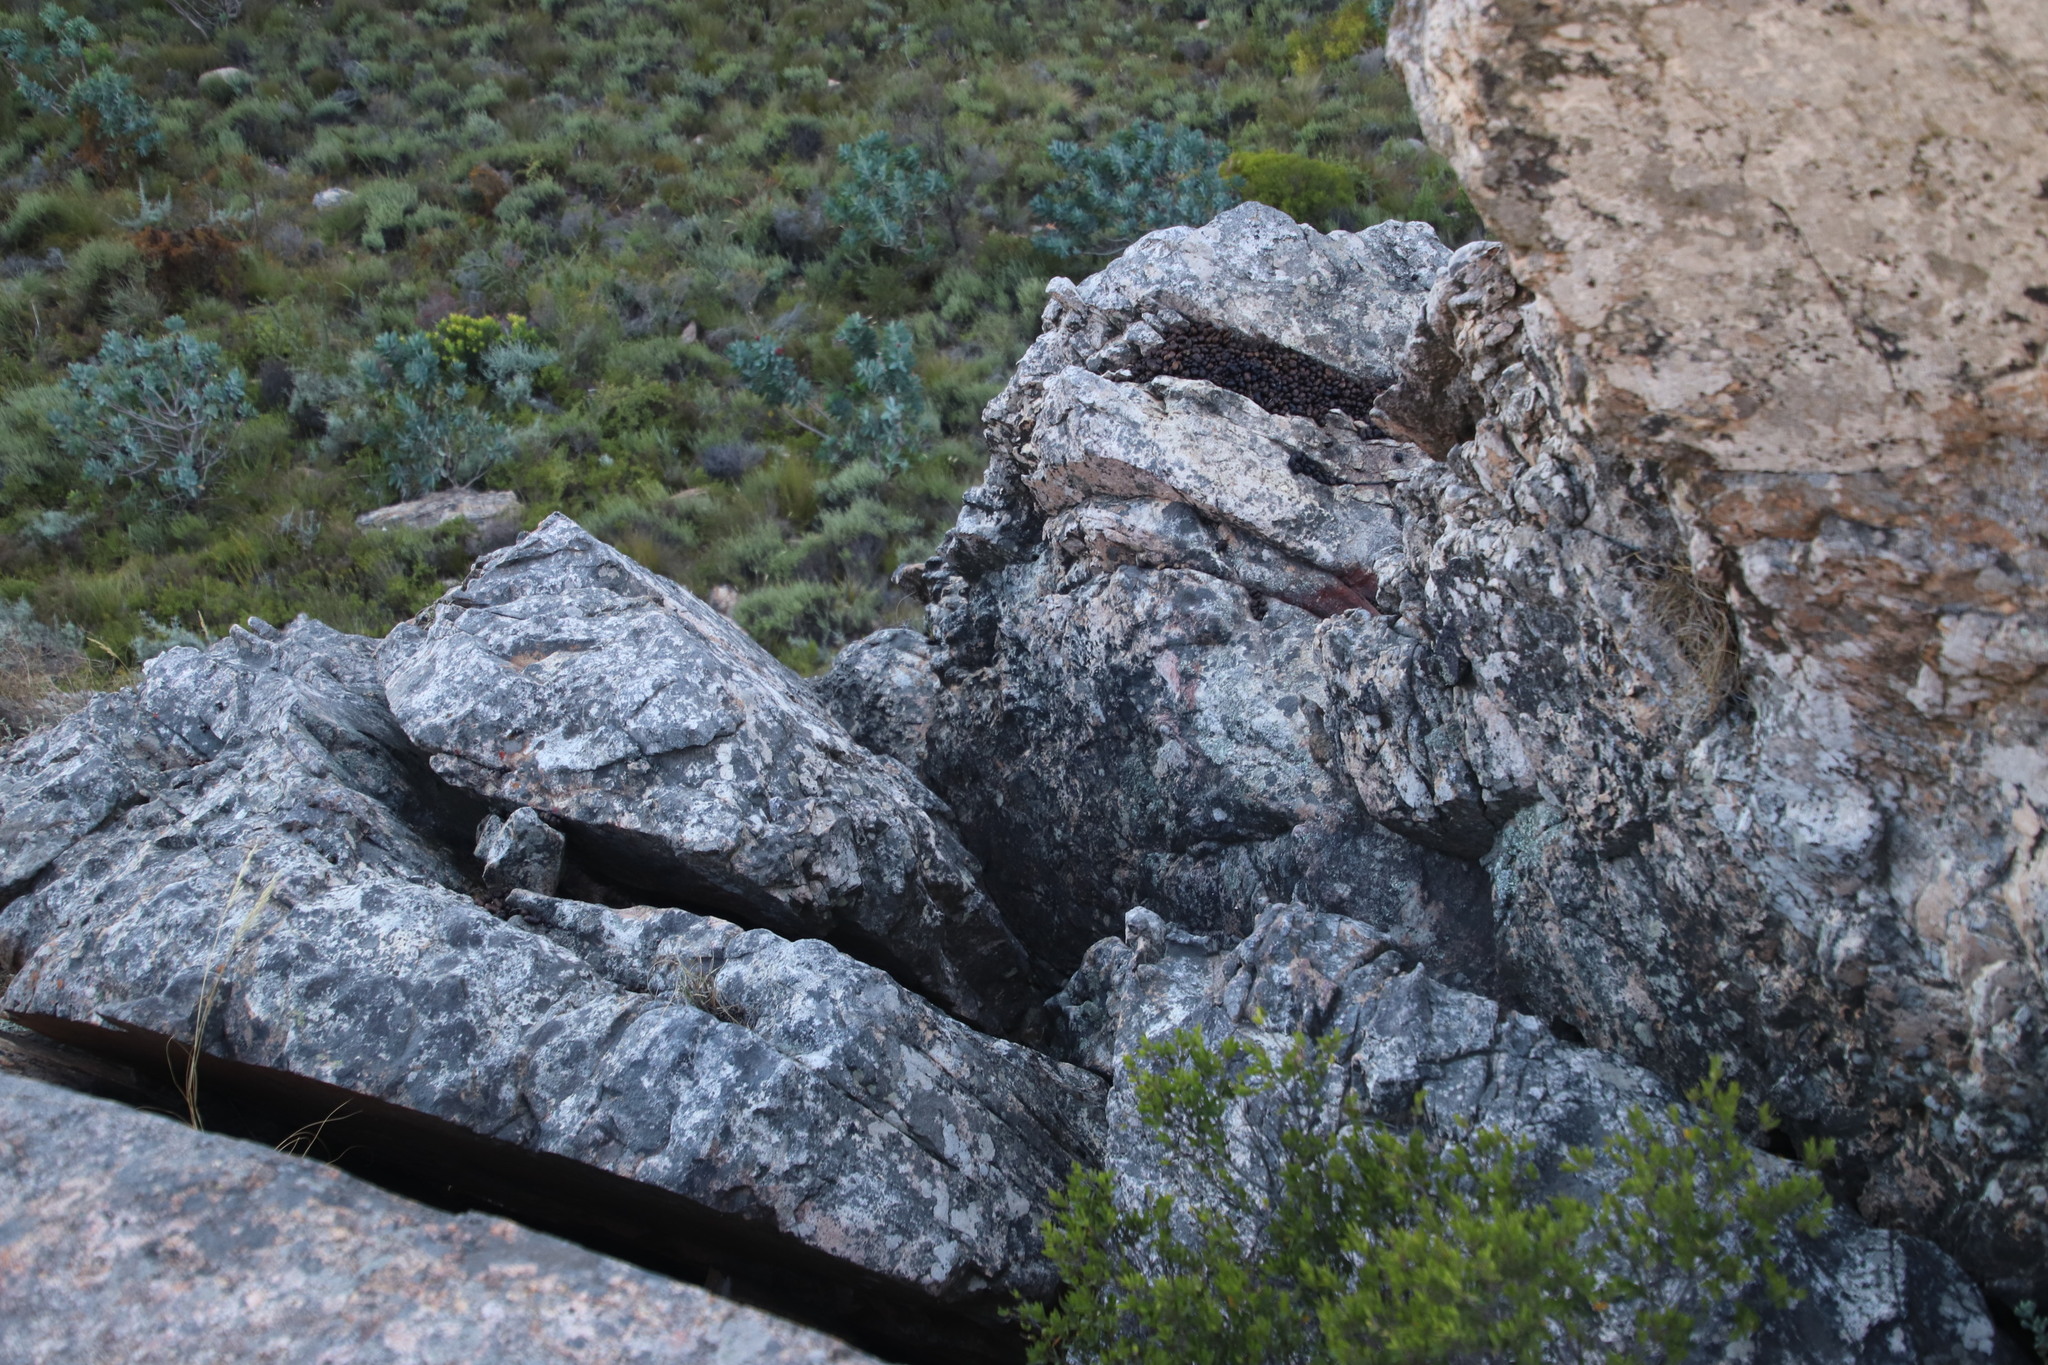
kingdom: Animalia
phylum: Chordata
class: Mammalia
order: Hyracoidea
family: Procaviidae
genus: Procavia
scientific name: Procavia capensis
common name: Rock hyrax
